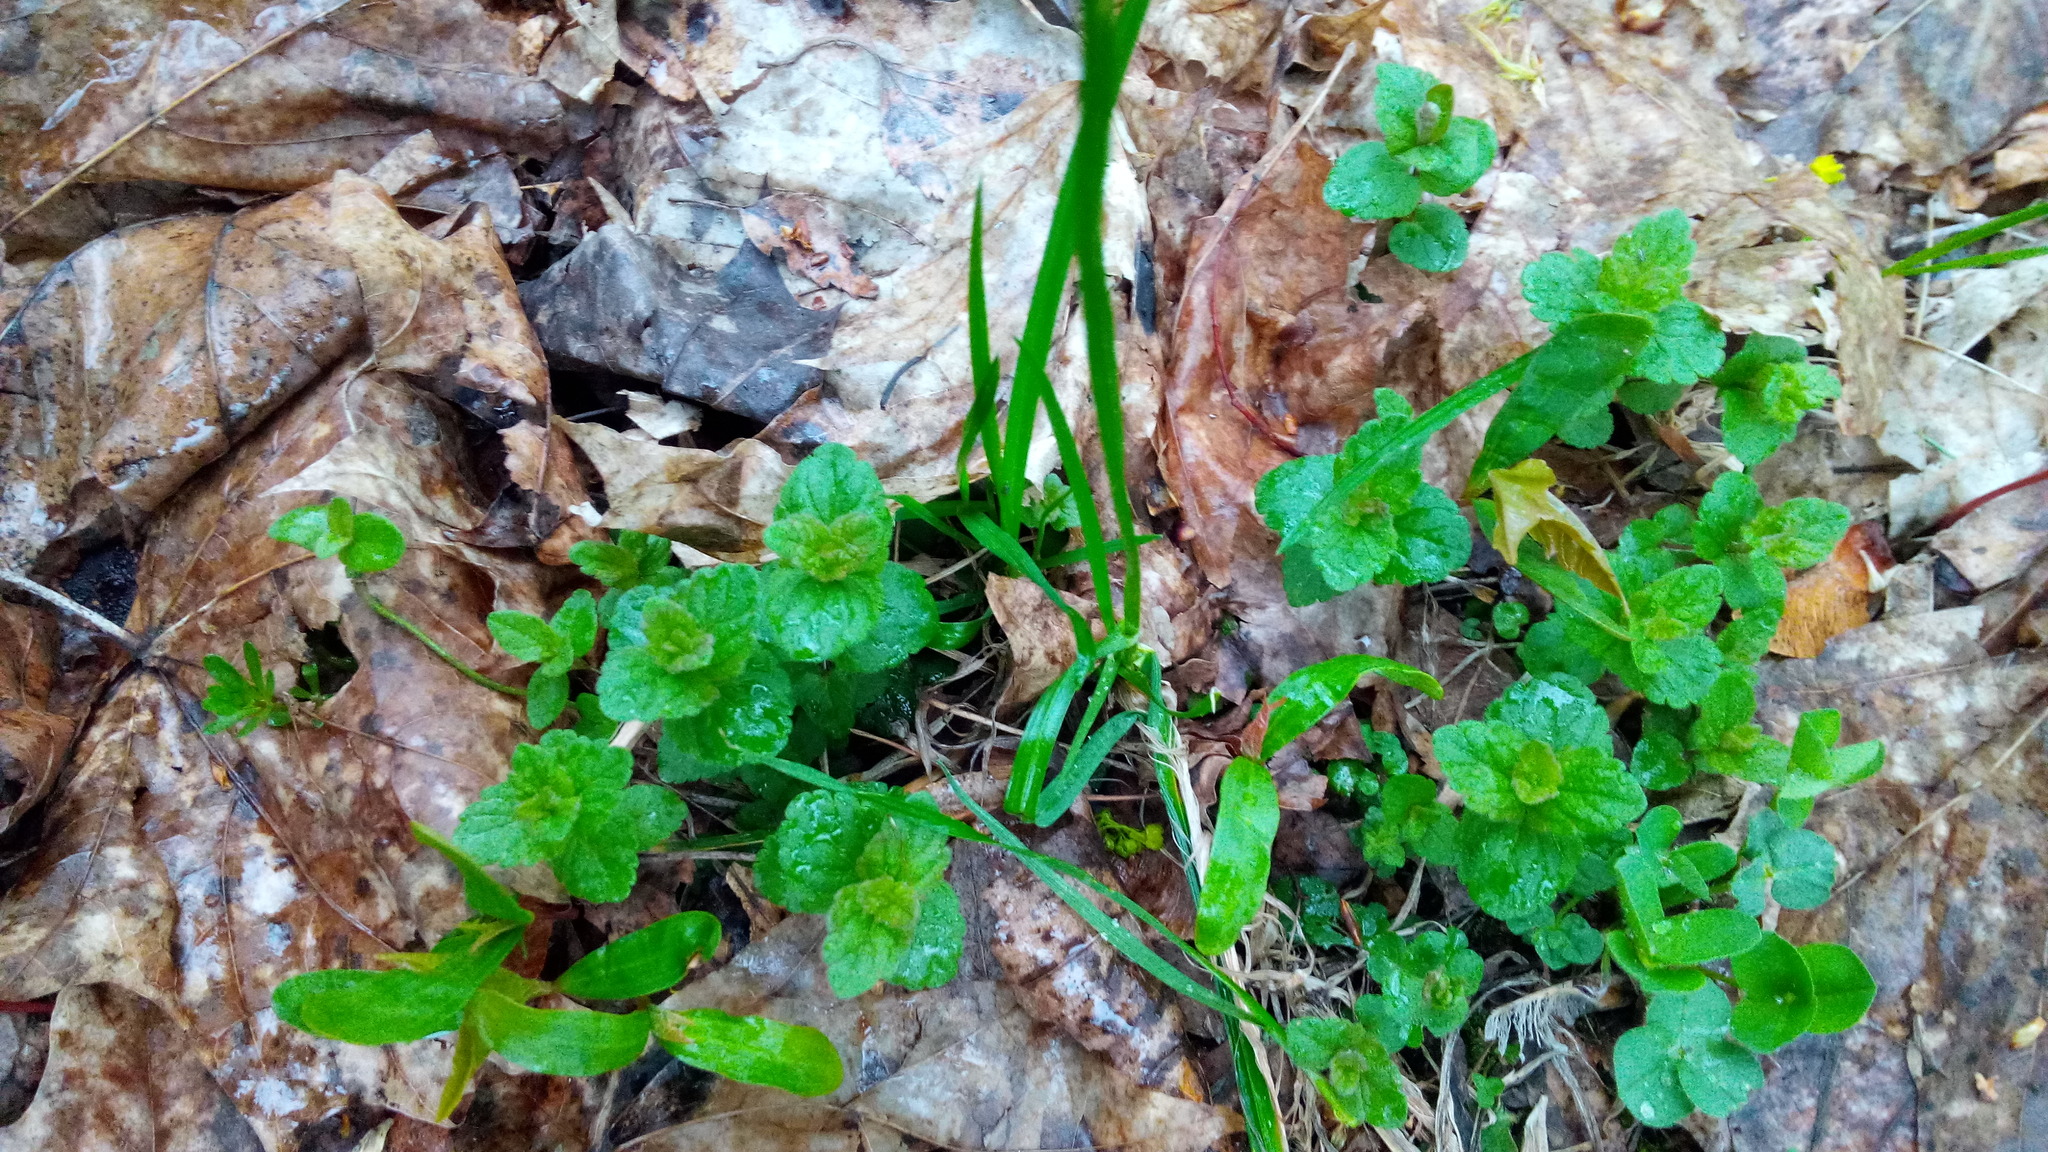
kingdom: Plantae
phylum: Tracheophyta
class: Magnoliopsida
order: Lamiales
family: Plantaginaceae
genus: Veronica
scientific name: Veronica chamaedrys
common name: Germander speedwell
